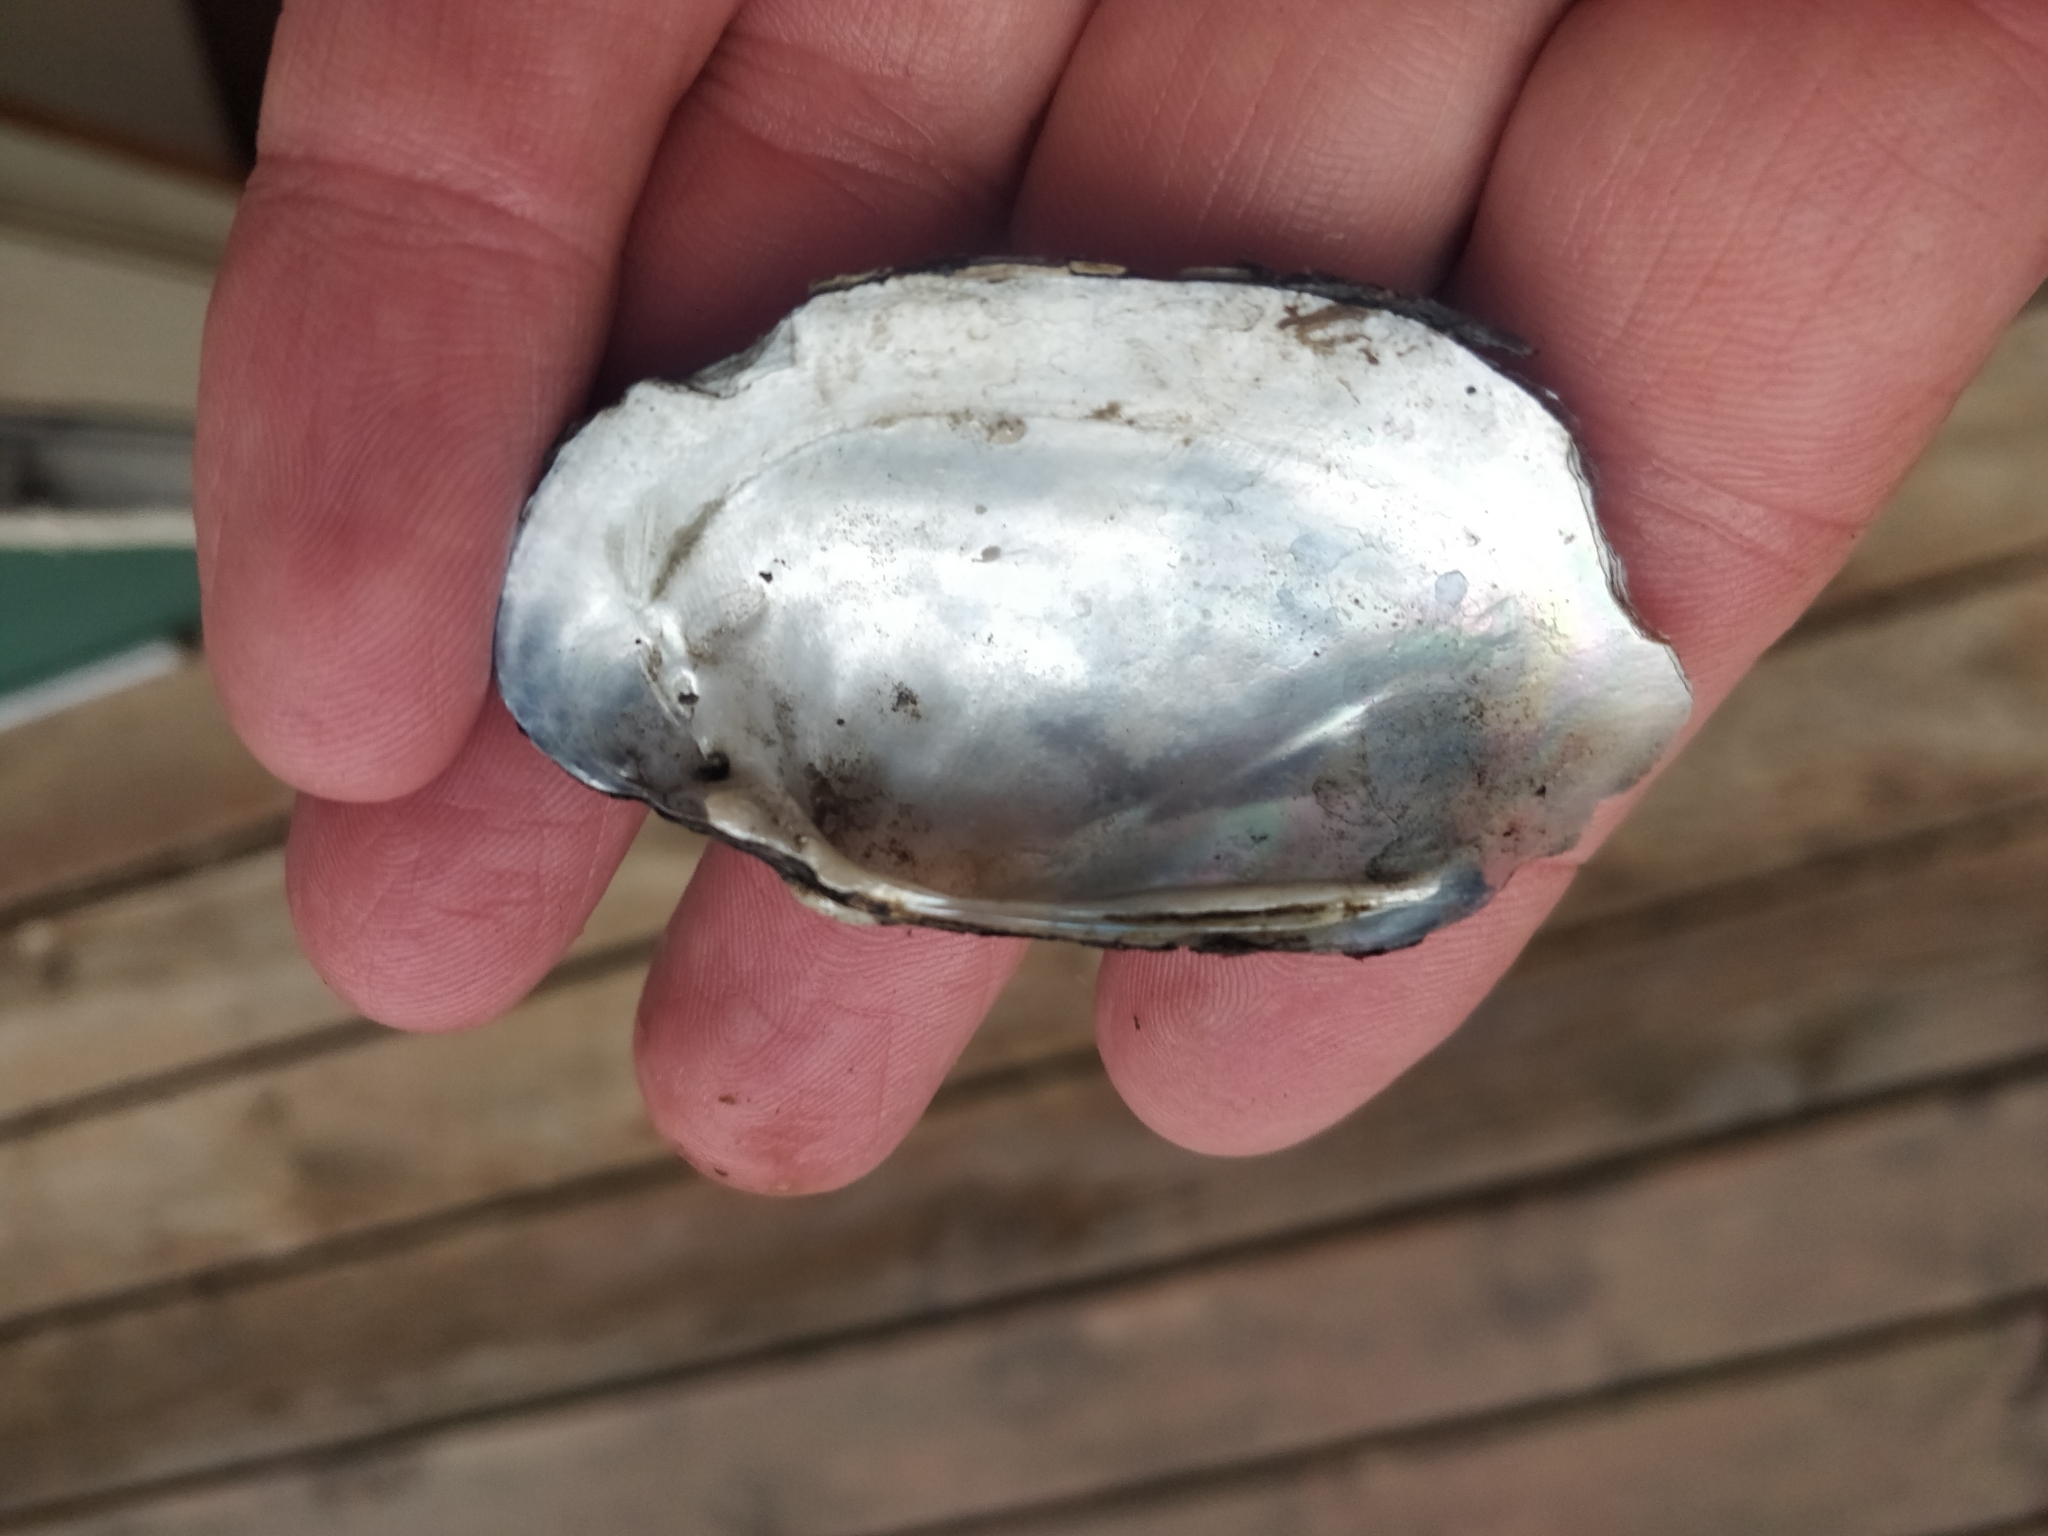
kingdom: Animalia
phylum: Mollusca
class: Bivalvia
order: Unionida
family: Unionidae
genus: Lampsilis
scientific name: Lampsilis siliquoidea
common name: Fatmucket
